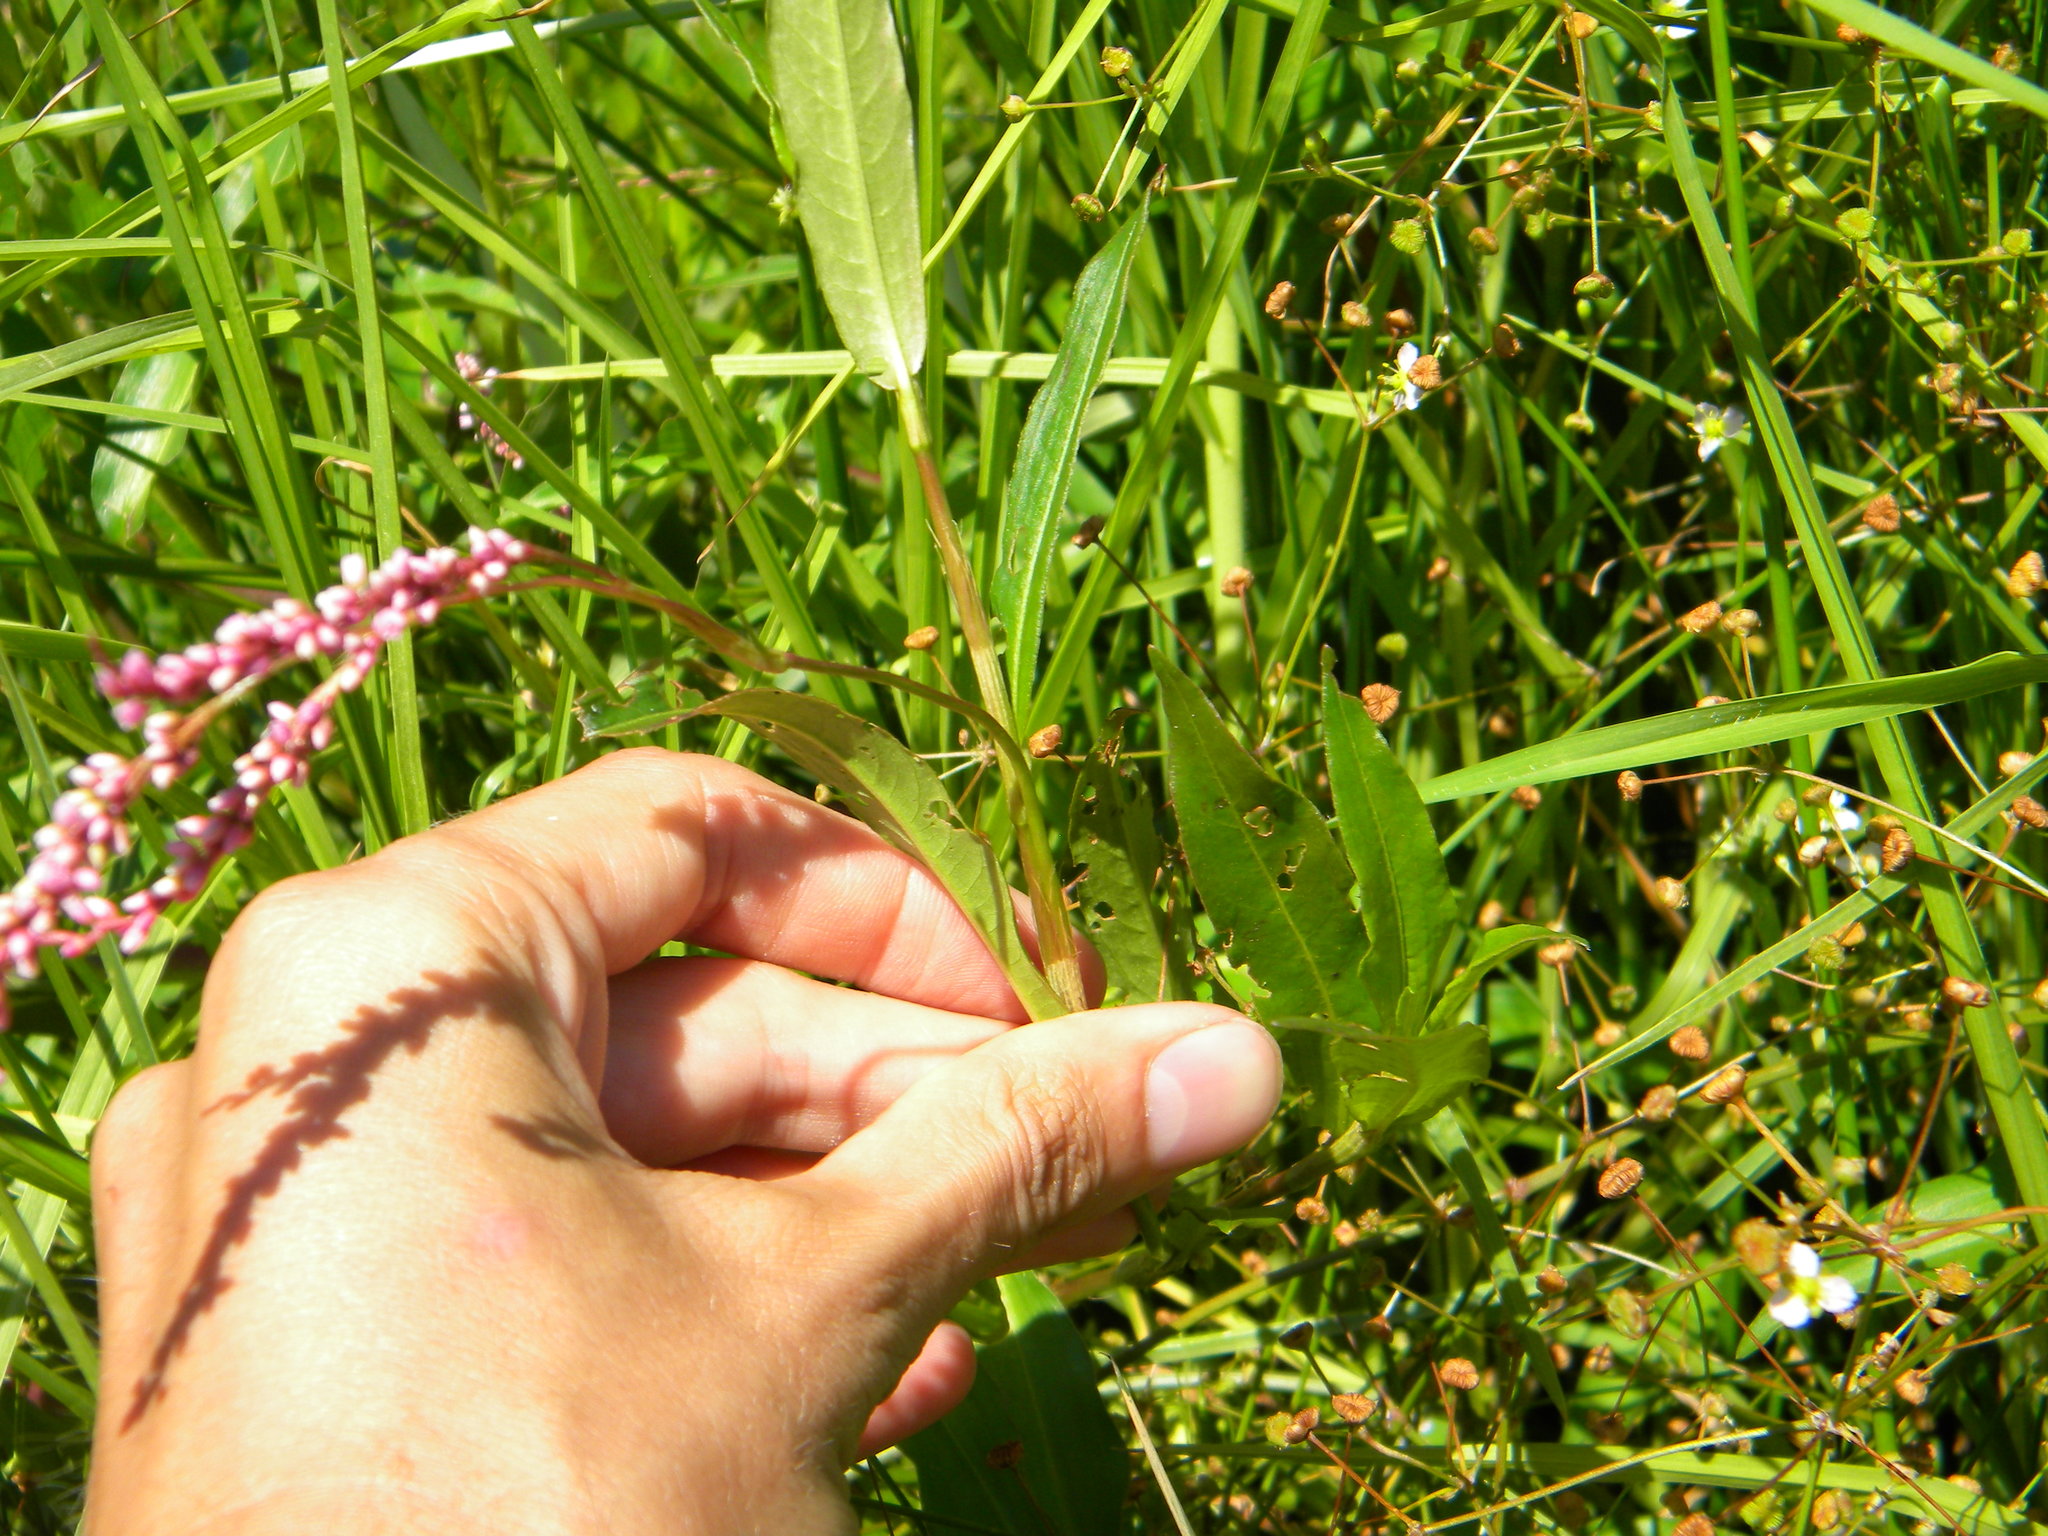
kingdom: Plantae
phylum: Tracheophyta
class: Magnoliopsida
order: Caryophyllales
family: Polygonaceae
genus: Persicaria
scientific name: Persicaria decipiens
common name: Willow-weed
